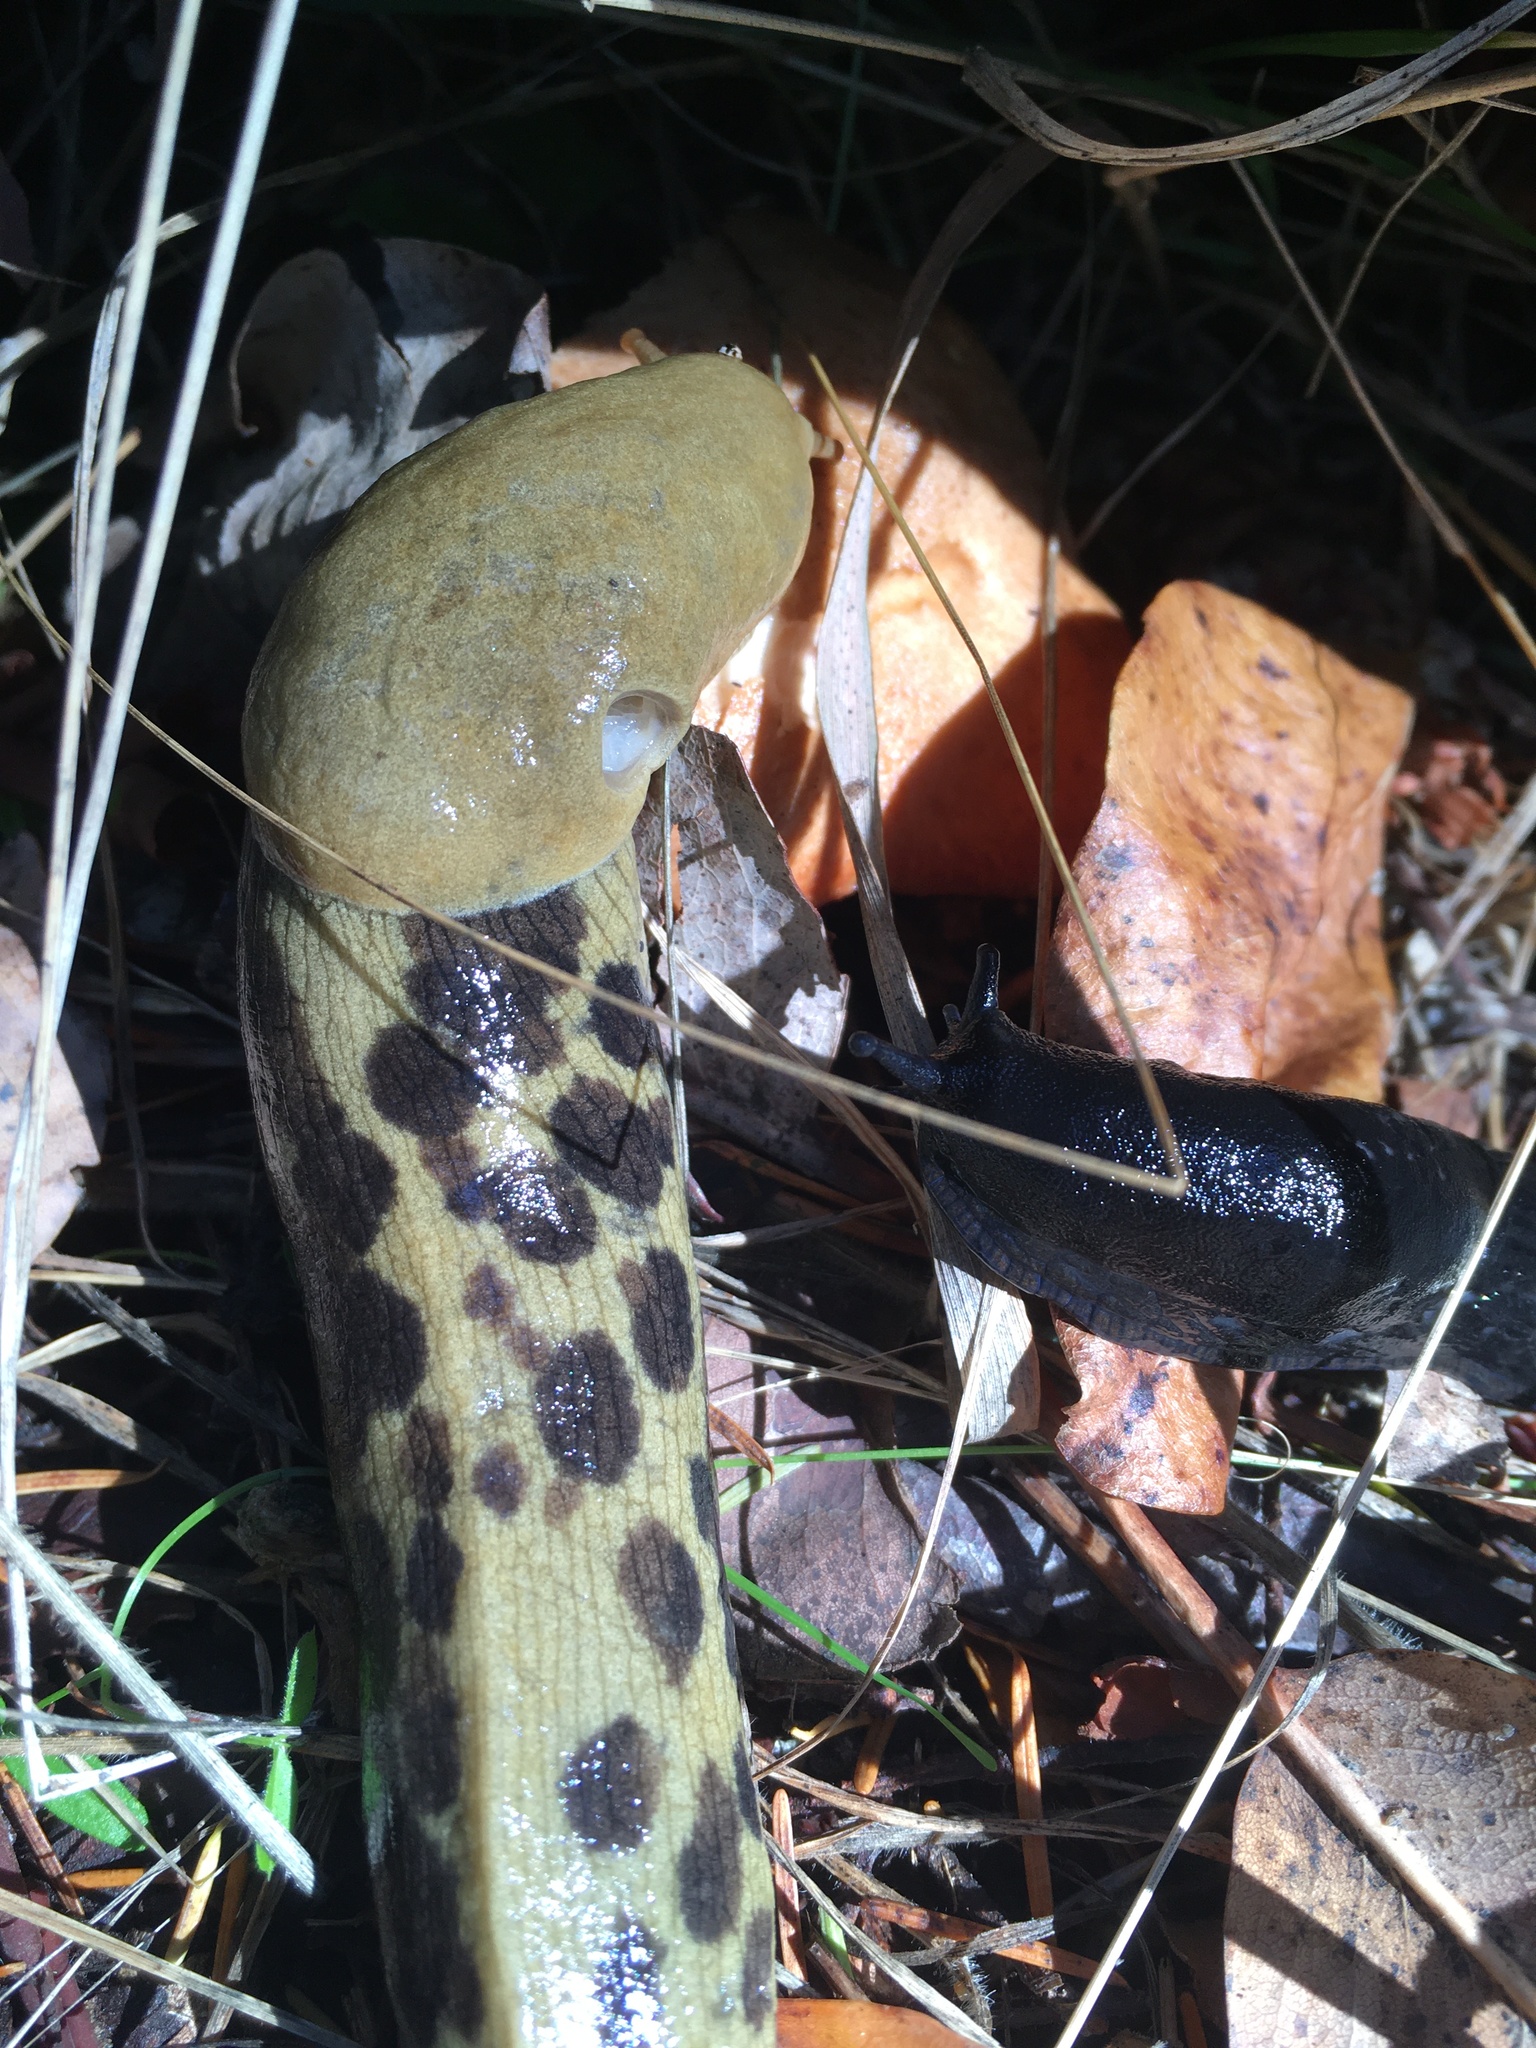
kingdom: Animalia
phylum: Mollusca
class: Gastropoda
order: Stylommatophora
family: Ariolimacidae
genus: Ariolimax
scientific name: Ariolimax columbianus
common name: Pacific banana slug
